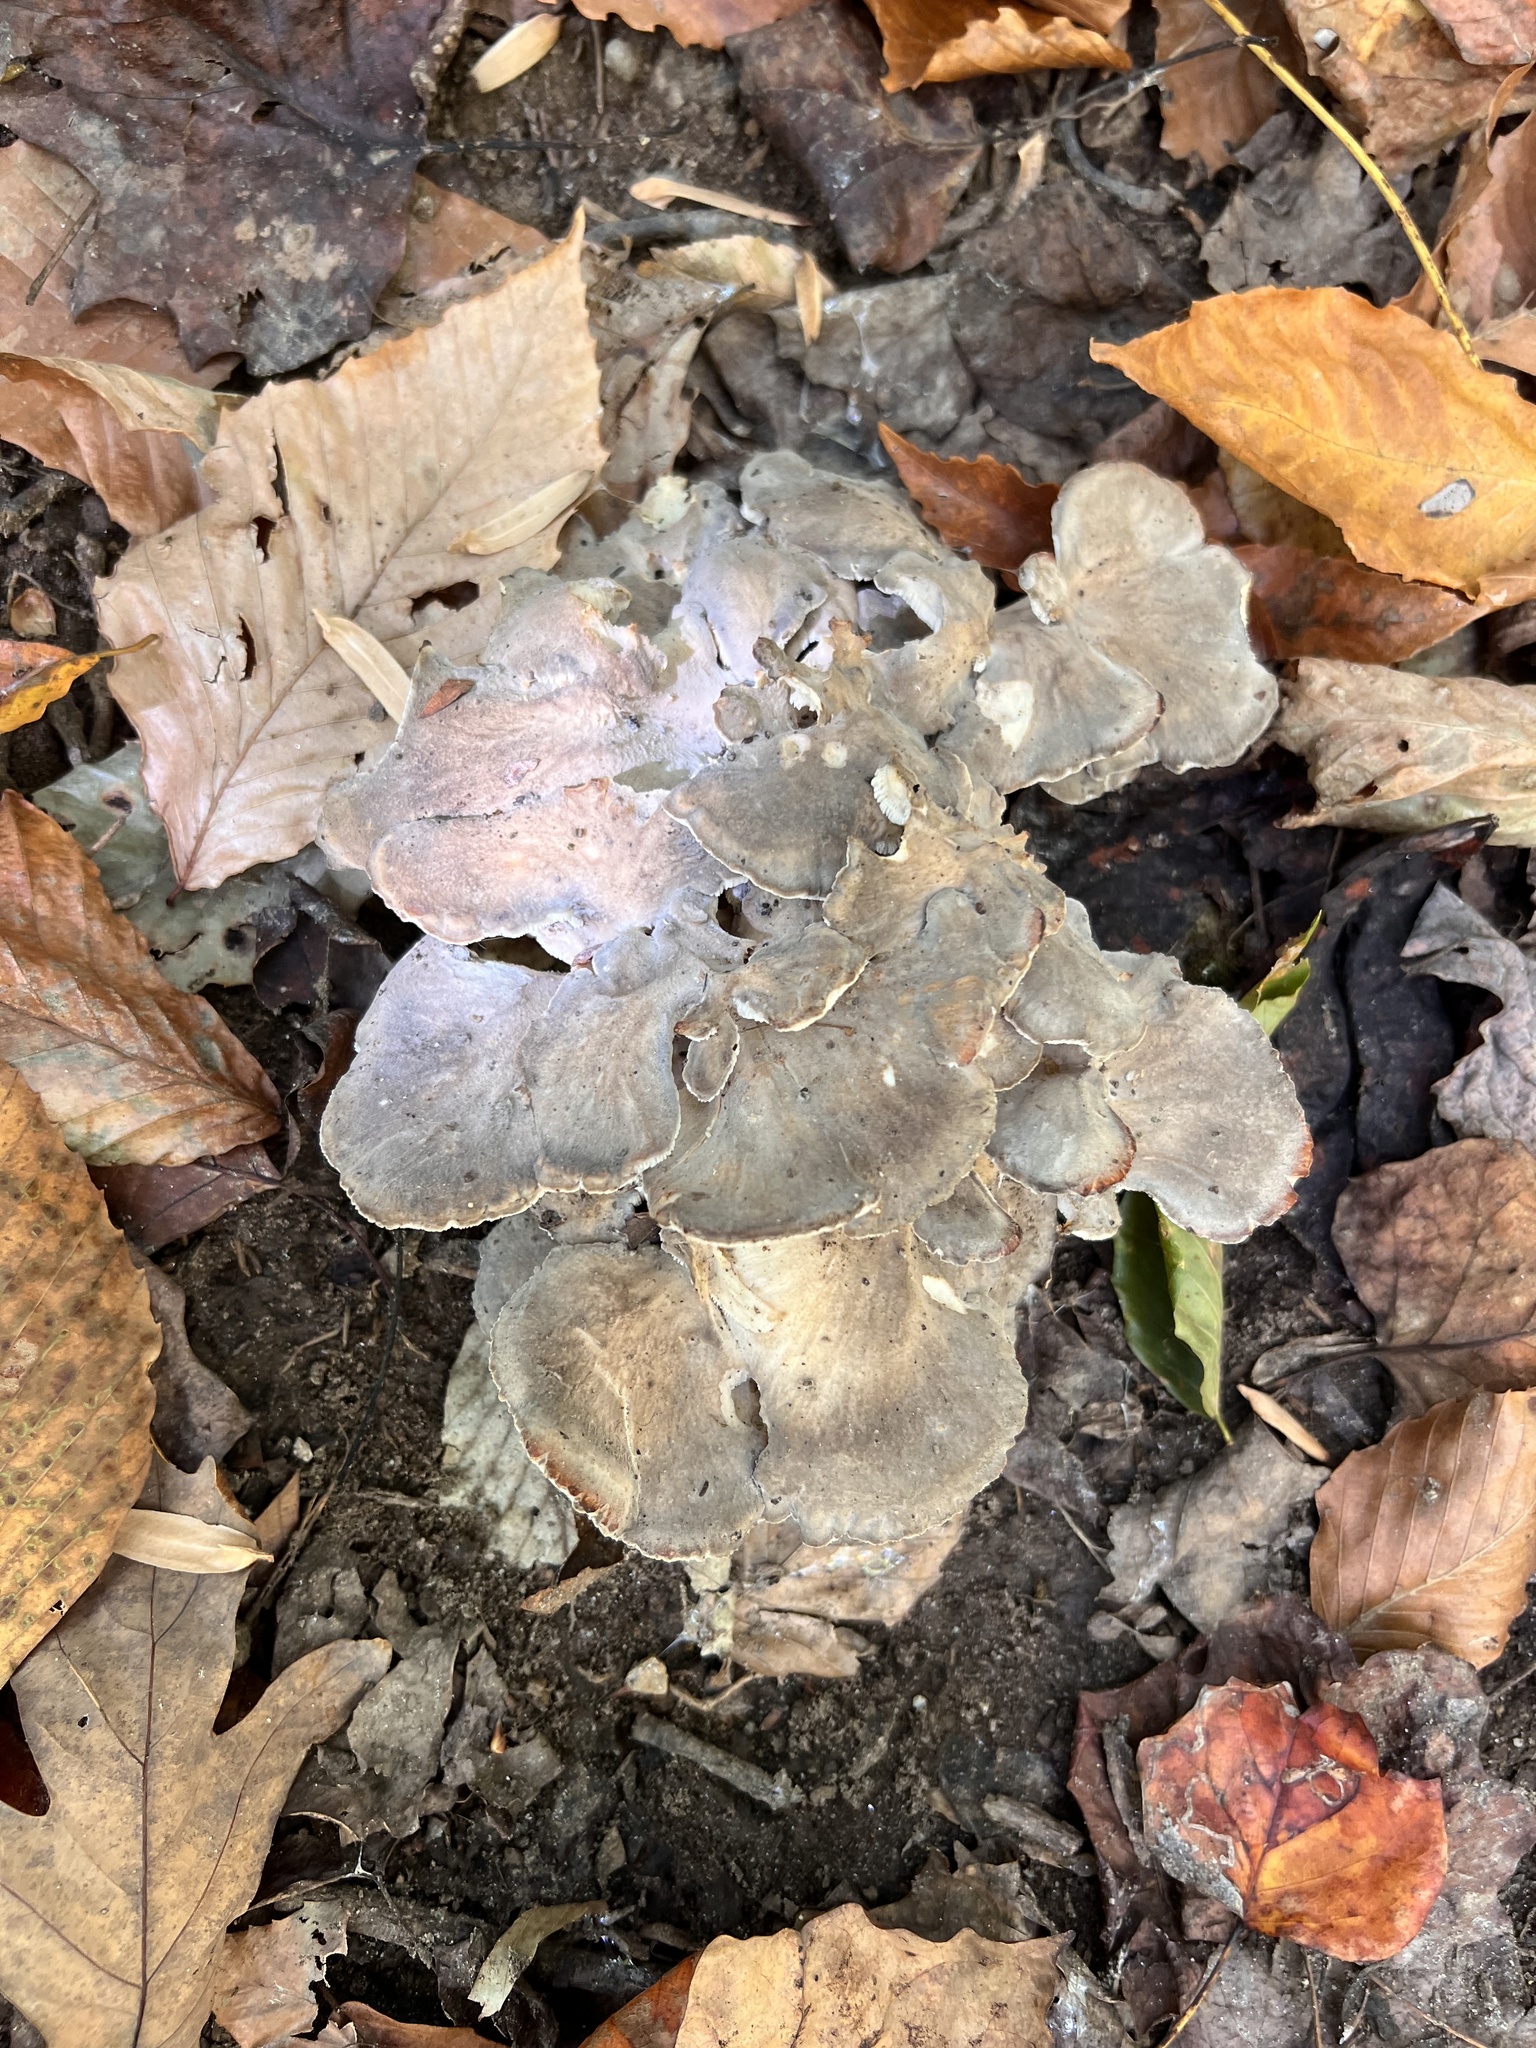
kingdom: Fungi
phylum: Basidiomycota
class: Agaricomycetes
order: Polyporales
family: Grifolaceae
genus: Grifola
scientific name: Grifola frondosa
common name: Hen of the woods
